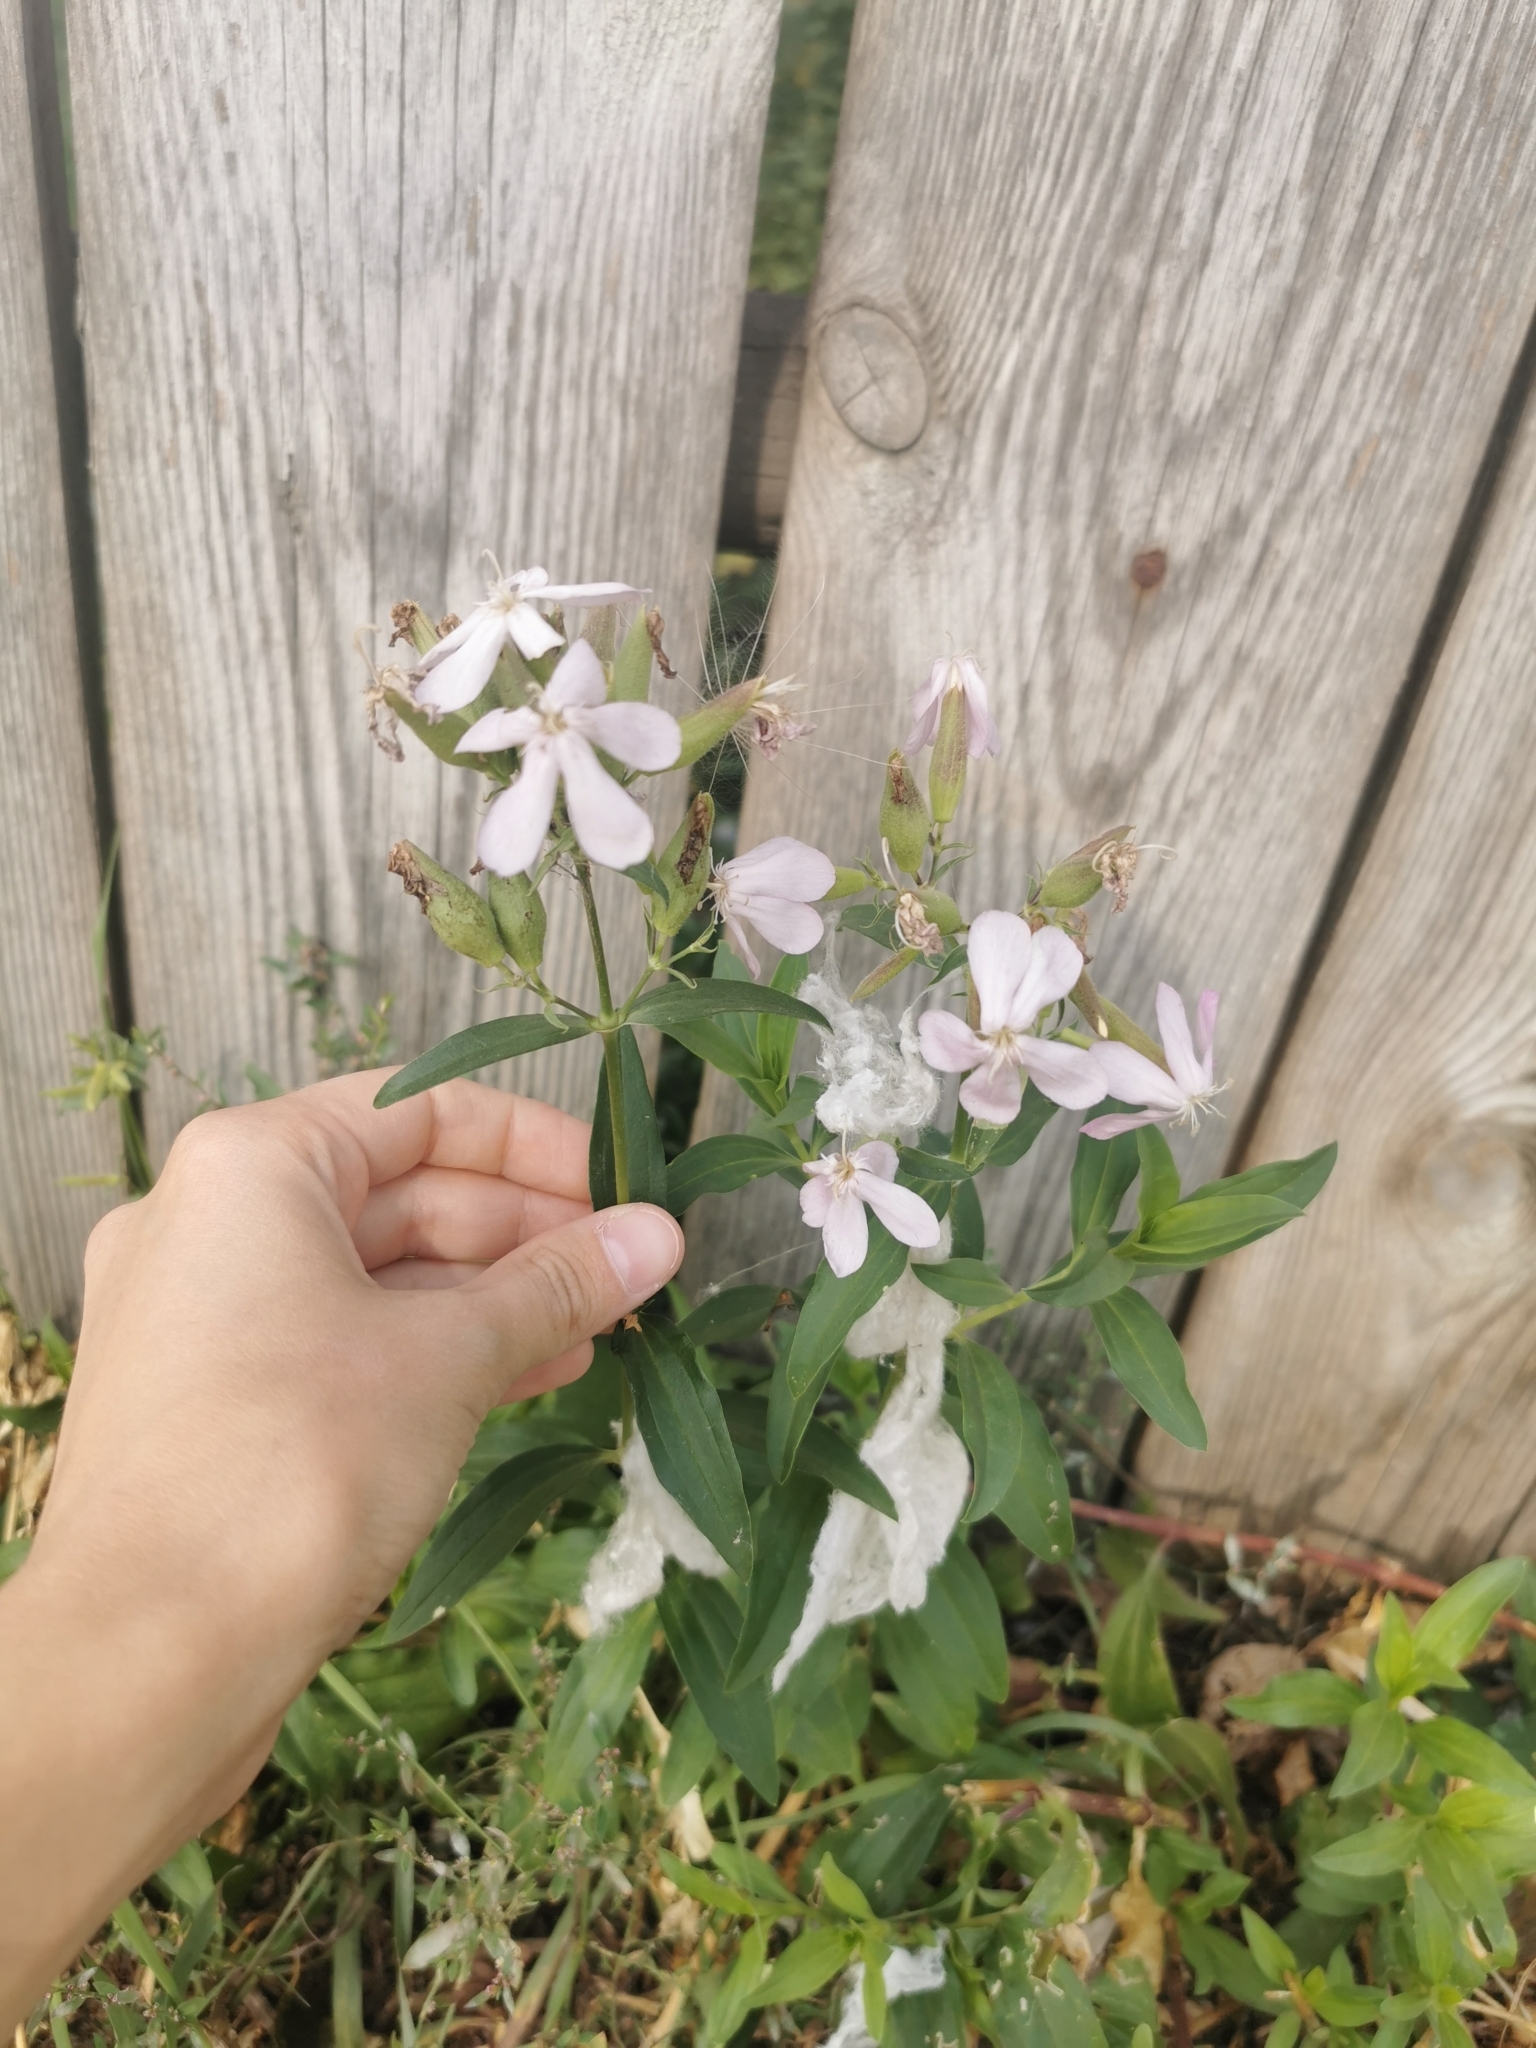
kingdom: Plantae
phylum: Tracheophyta
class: Magnoliopsida
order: Caryophyllales
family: Caryophyllaceae
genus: Saponaria
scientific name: Saponaria officinalis
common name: Soapwort
